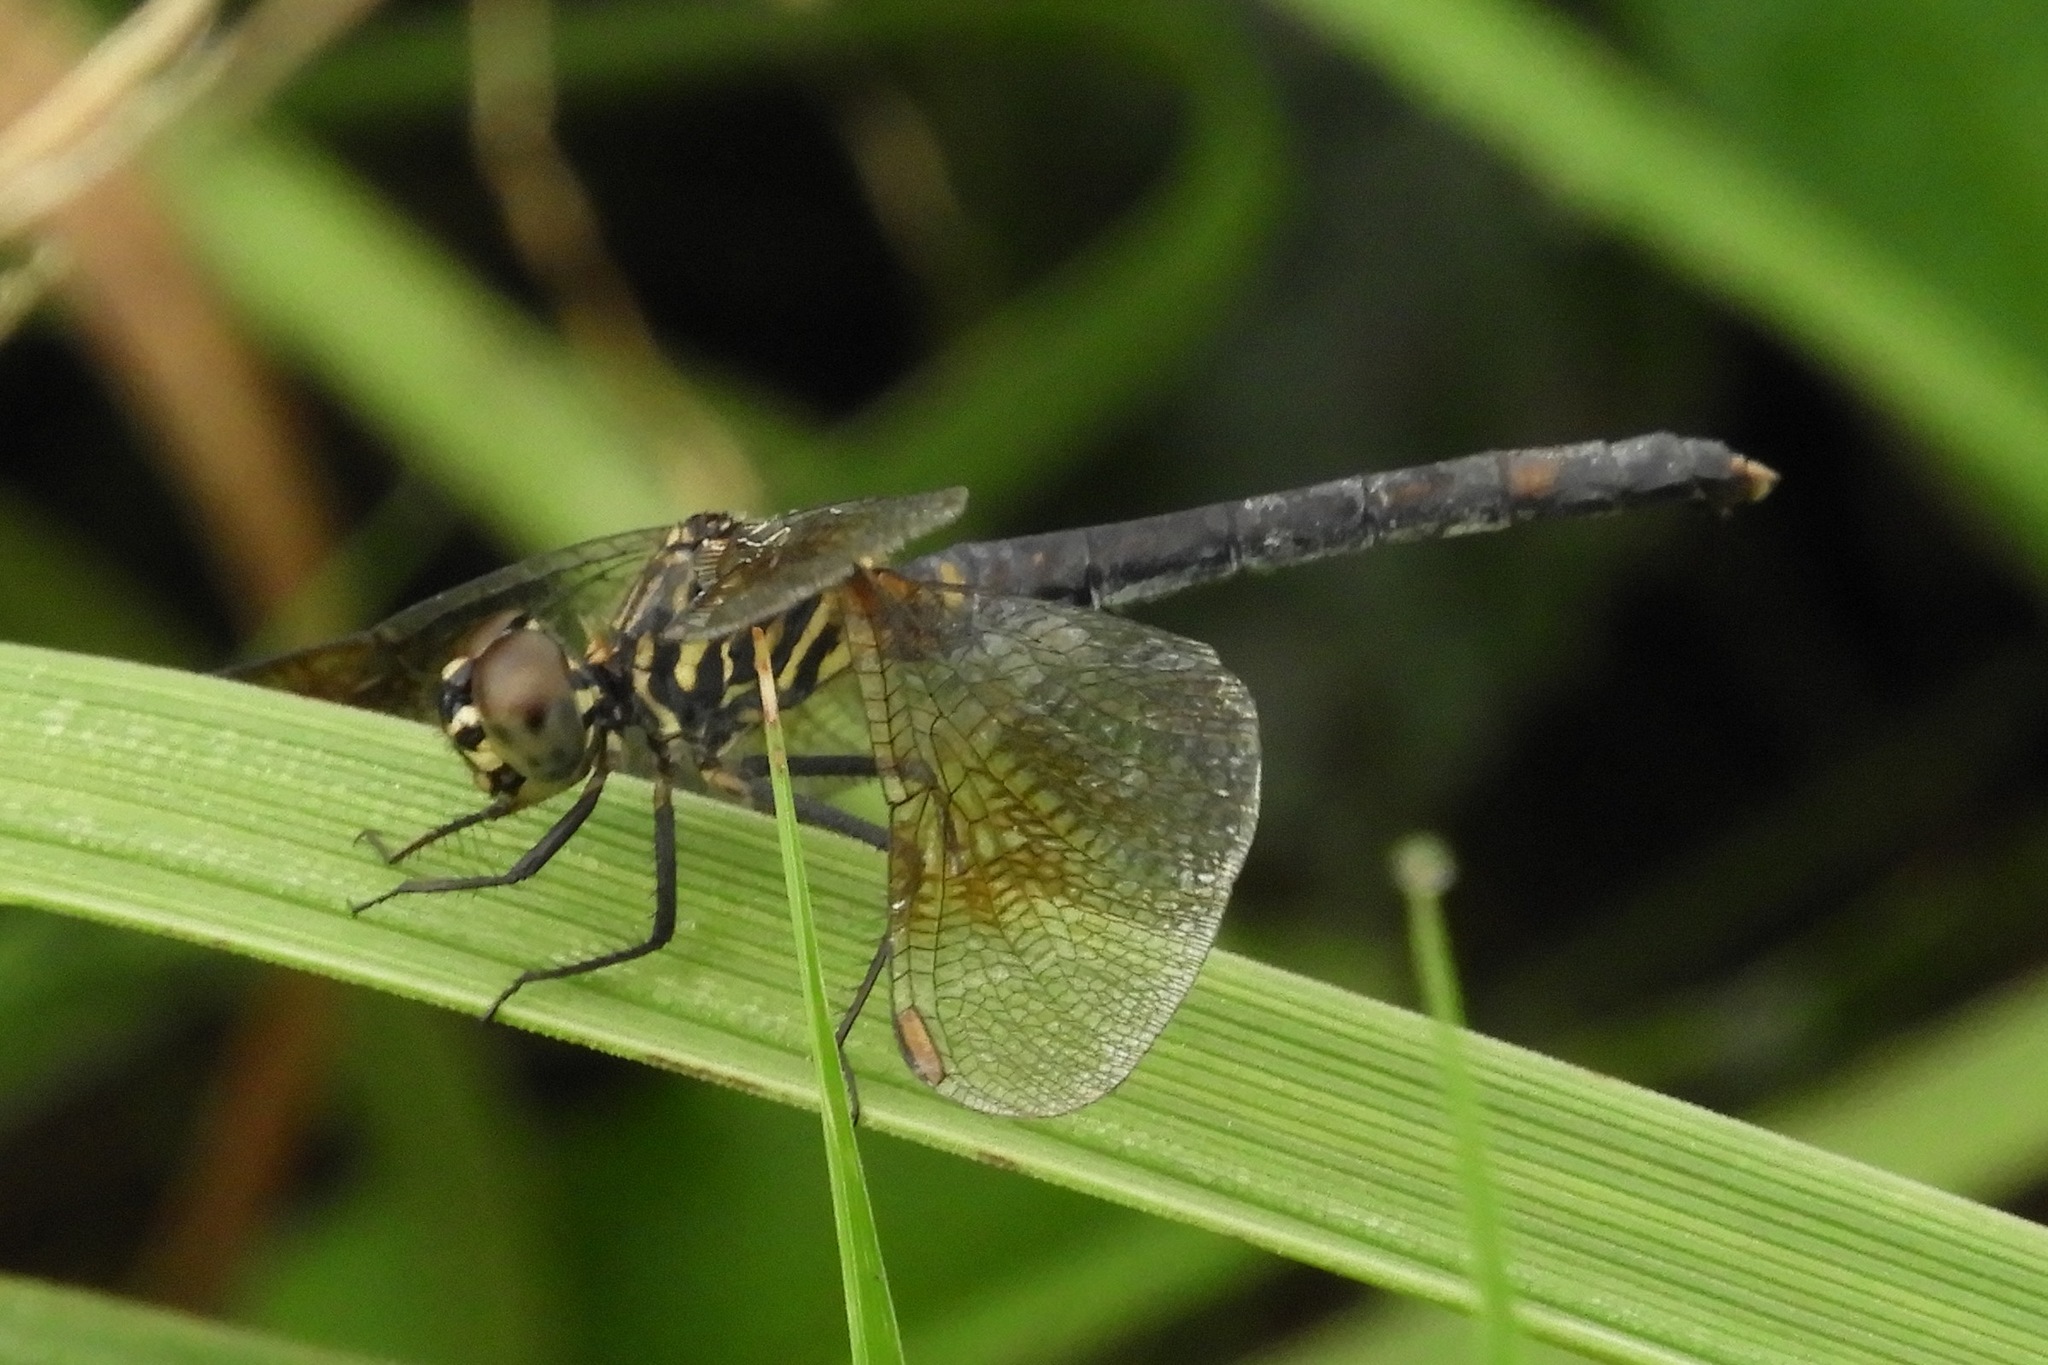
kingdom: Animalia
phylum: Arthropoda
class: Insecta
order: Odonata
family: Libellulidae
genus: Erythrodiplax
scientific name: Erythrodiplax berenice
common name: Seaside dragonlet
